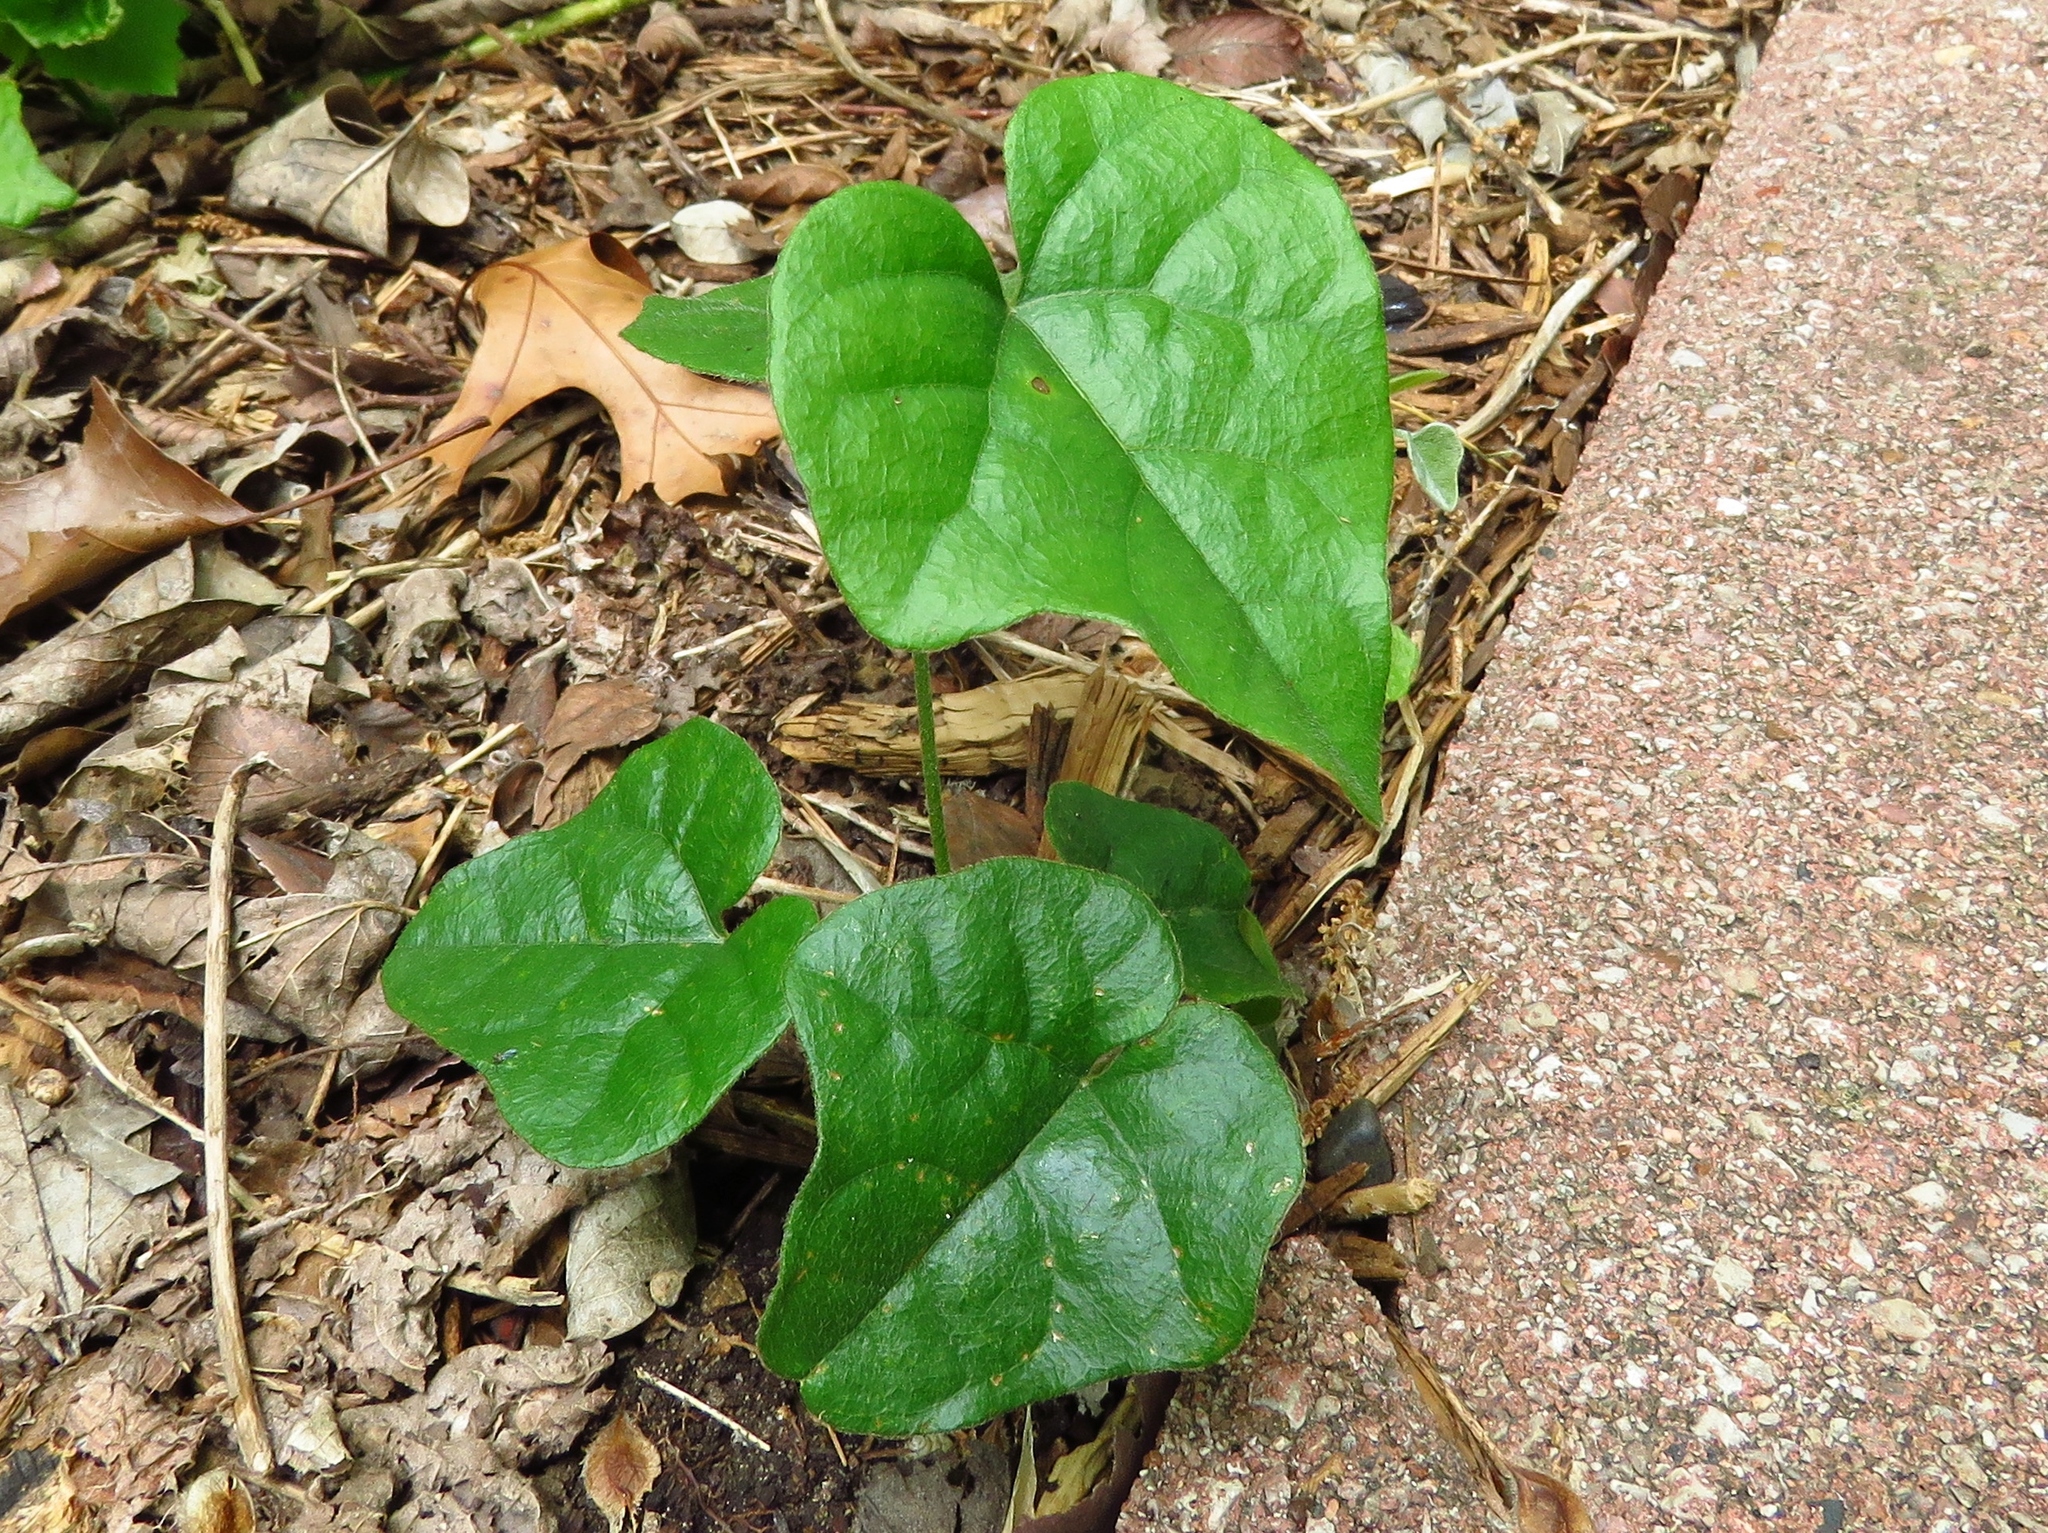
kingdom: Plantae
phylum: Tracheophyta
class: Magnoliopsida
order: Ranunculales
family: Menispermaceae
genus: Cocculus
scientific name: Cocculus carolinus
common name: Carolina moonseed
